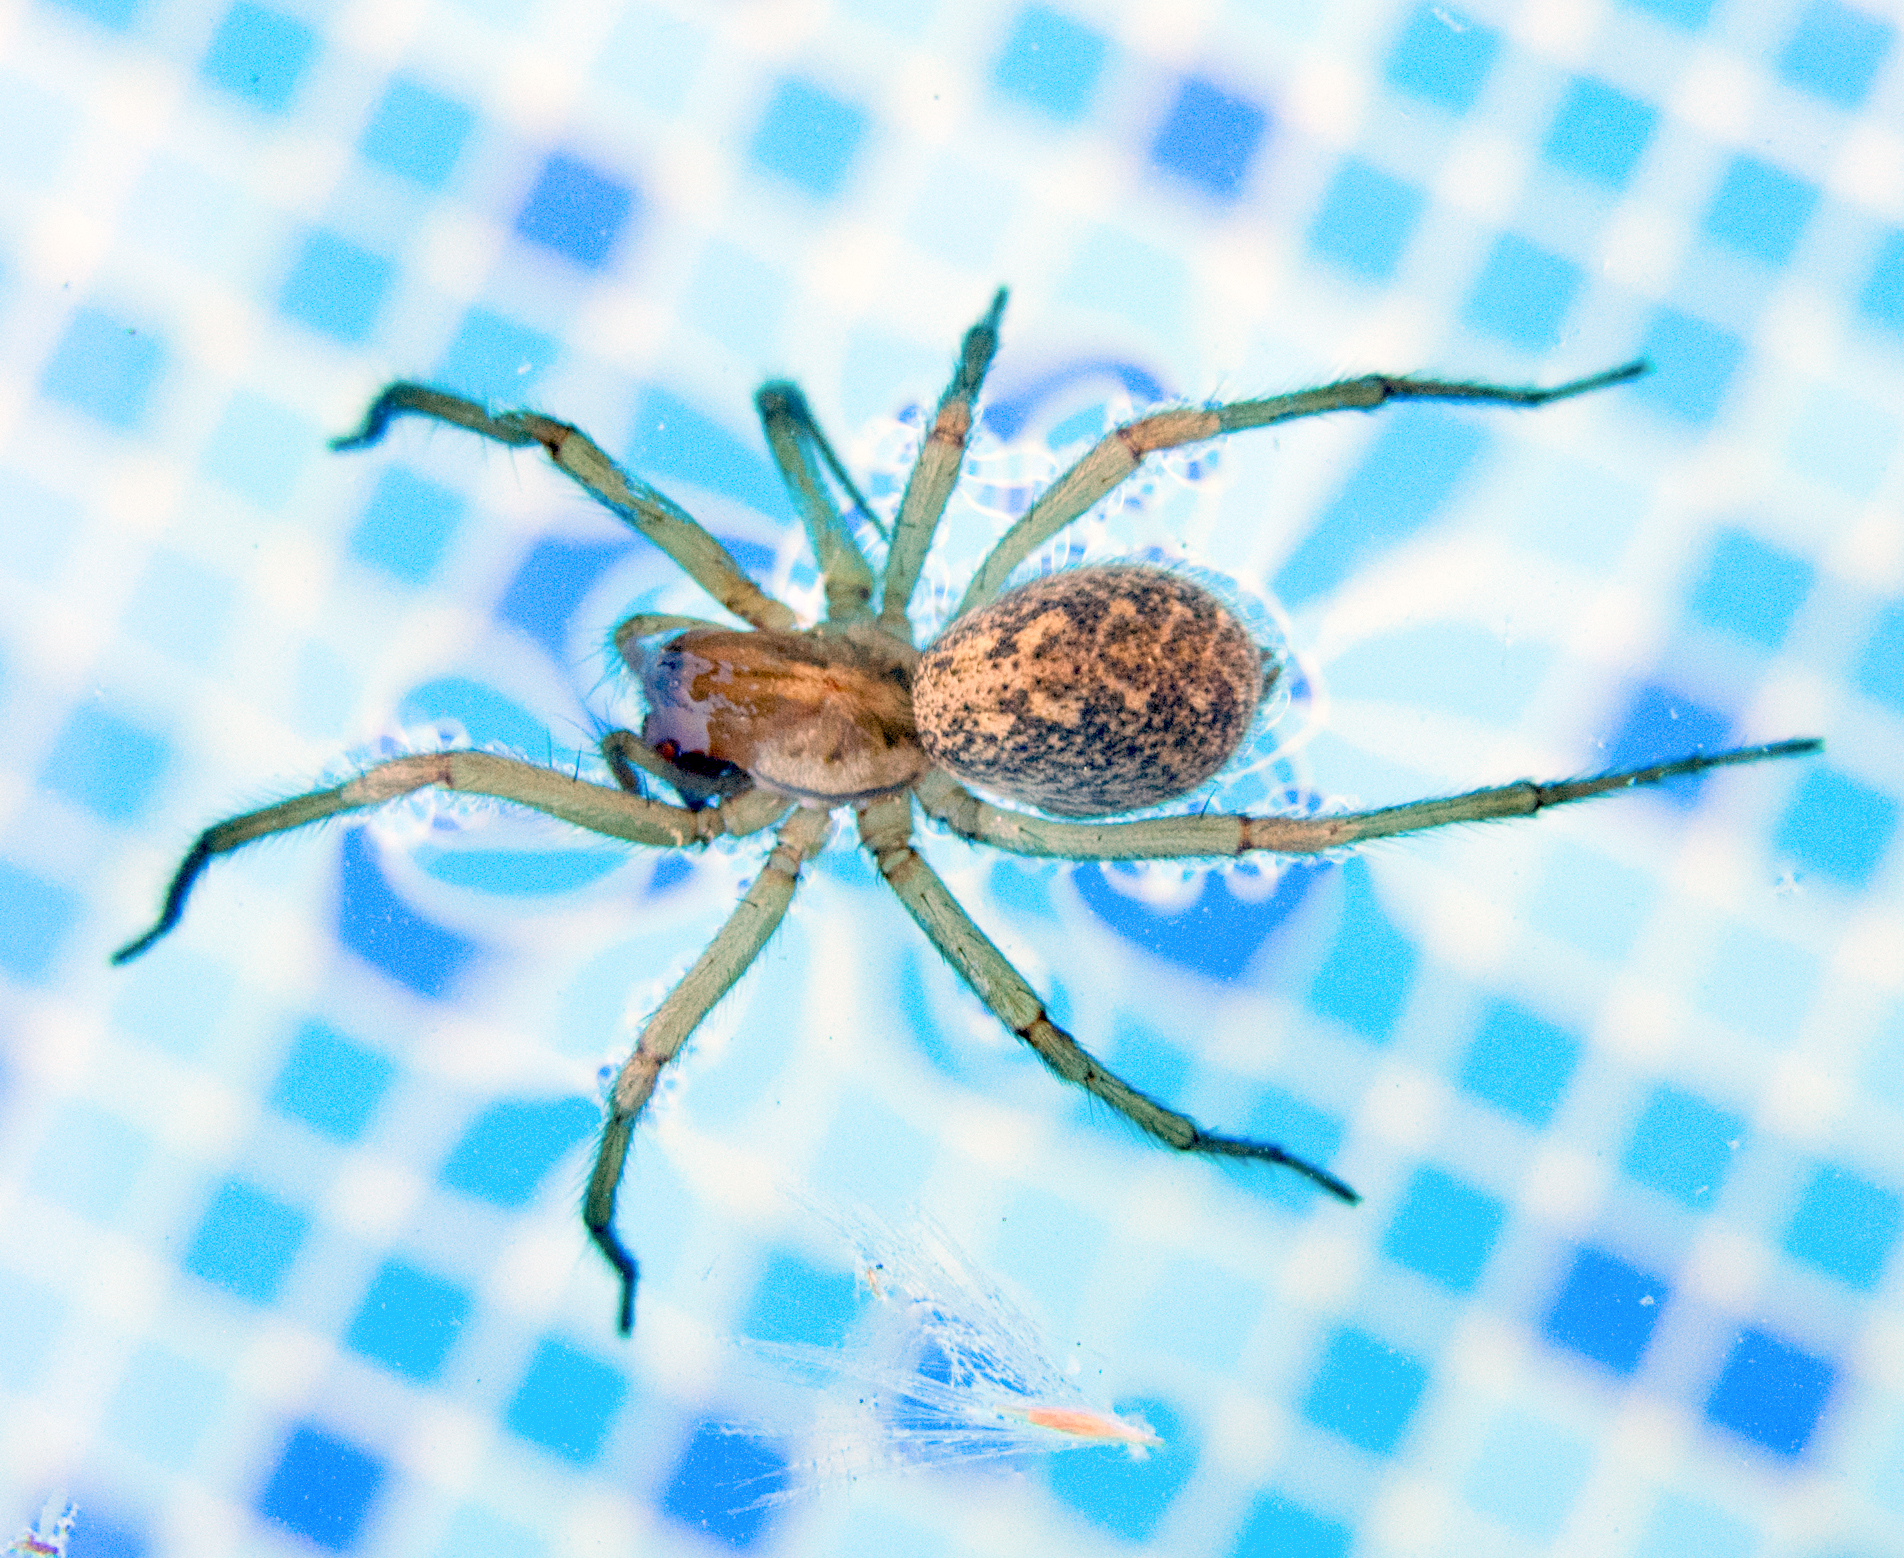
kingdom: Animalia
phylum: Arthropoda
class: Arachnida
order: Araneae
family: Agelenidae
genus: Eratigena
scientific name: Eratigena agrestis
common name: Hobo spider
